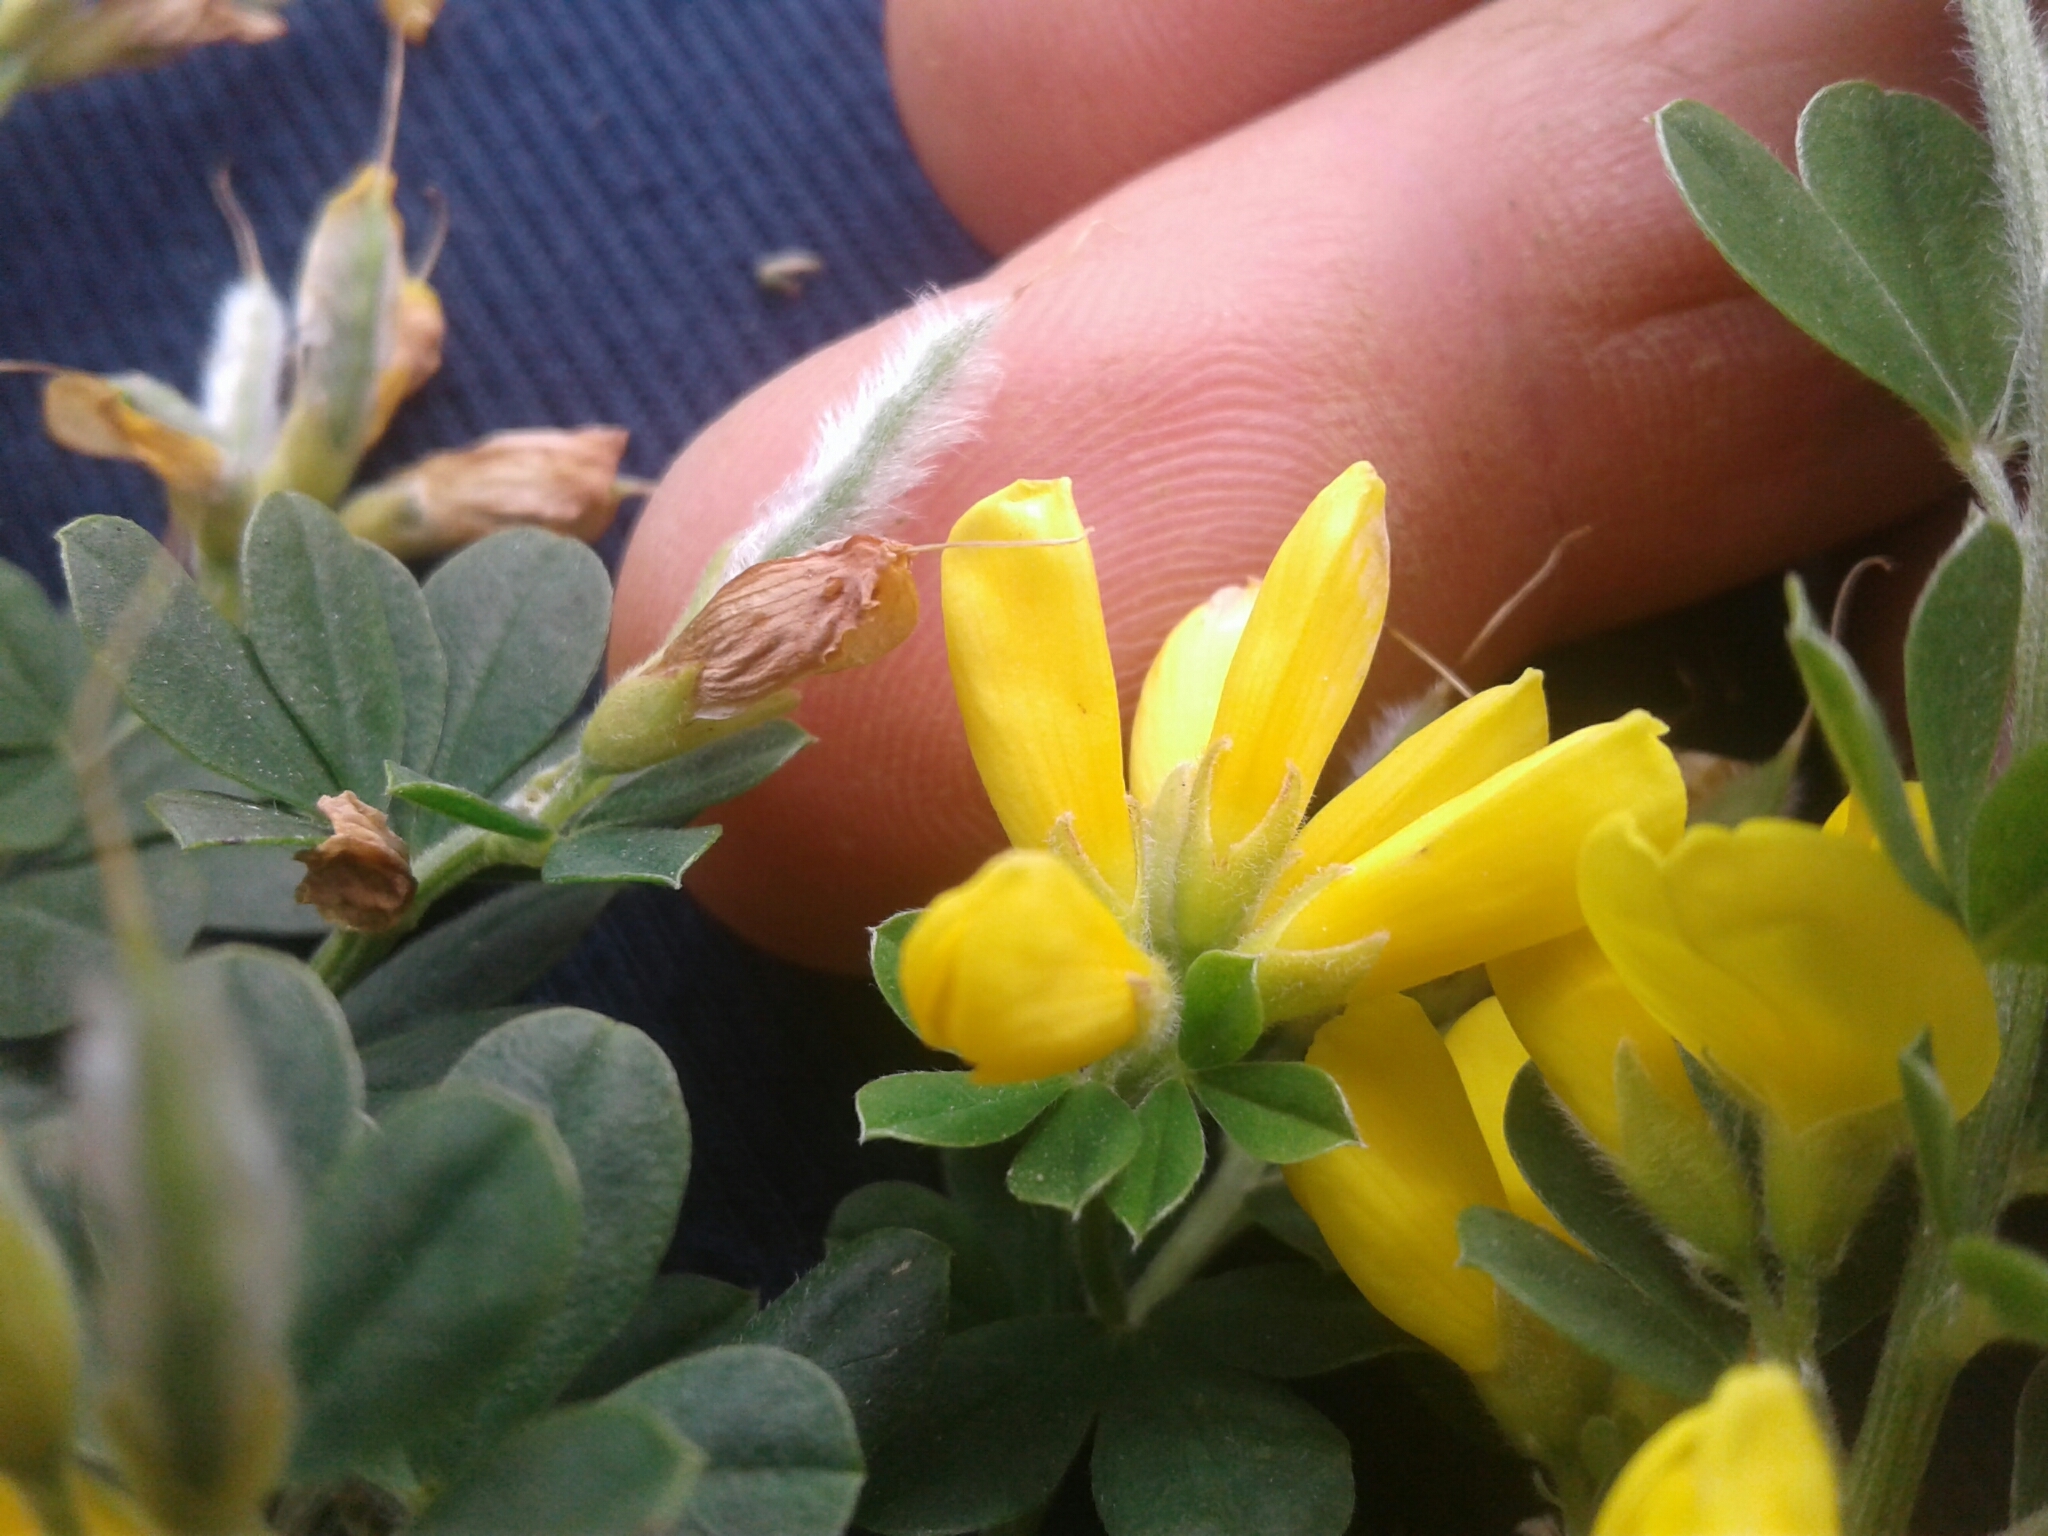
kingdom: Plantae
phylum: Tracheophyta
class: Magnoliopsida
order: Fabales
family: Fabaceae
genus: Genista
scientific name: Genista monspessulana
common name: Montpellier broom
